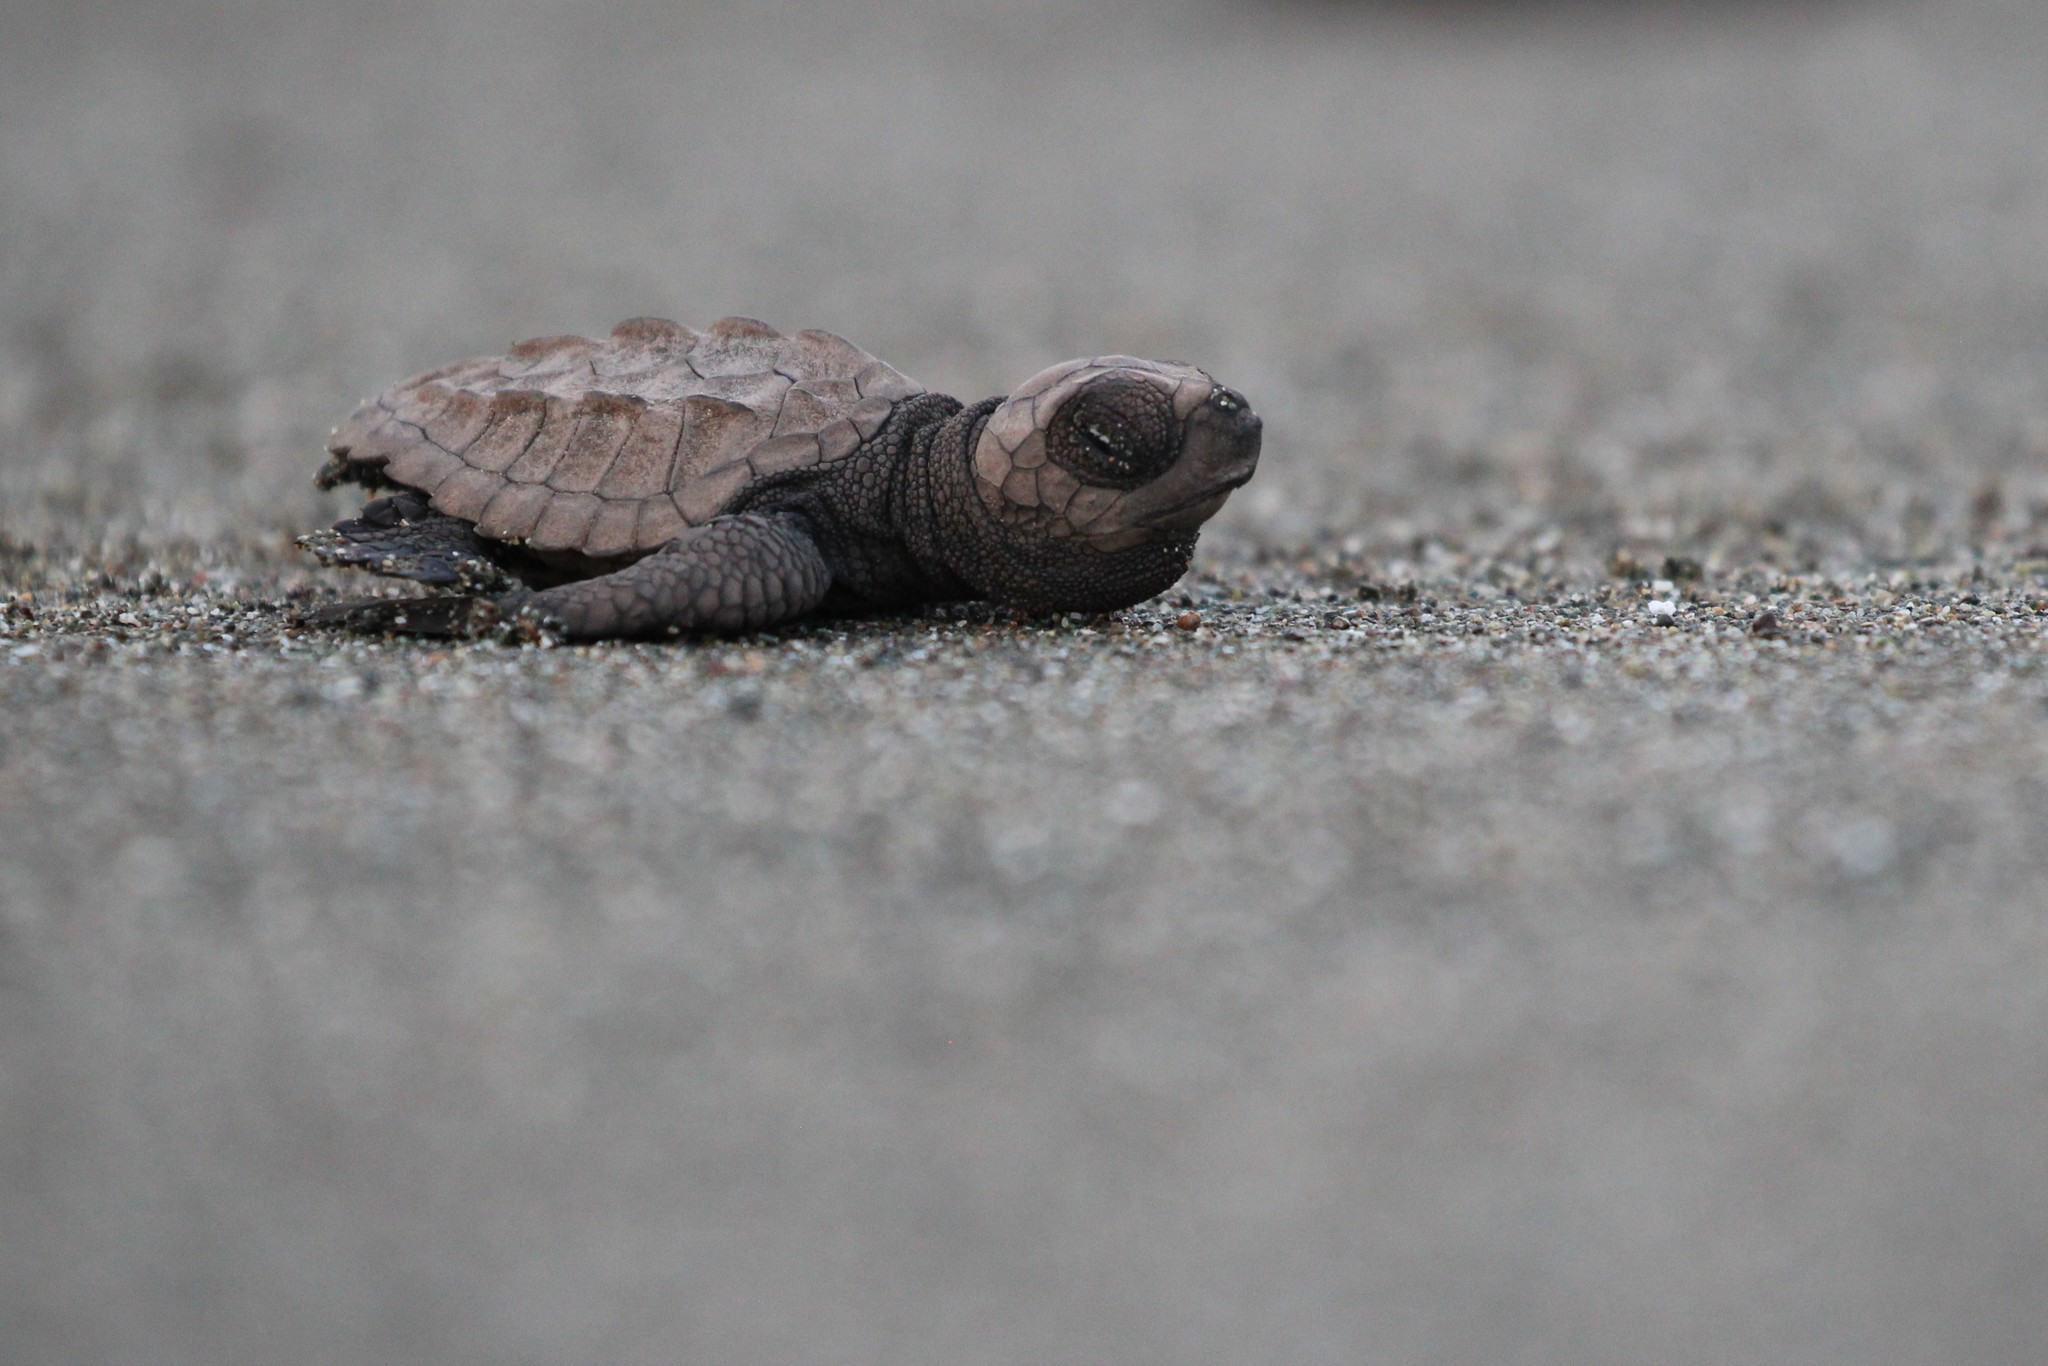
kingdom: Animalia
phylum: Chordata
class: Testudines
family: Cheloniidae
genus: Lepidochelys
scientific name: Lepidochelys olivacea
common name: Olive ridley
